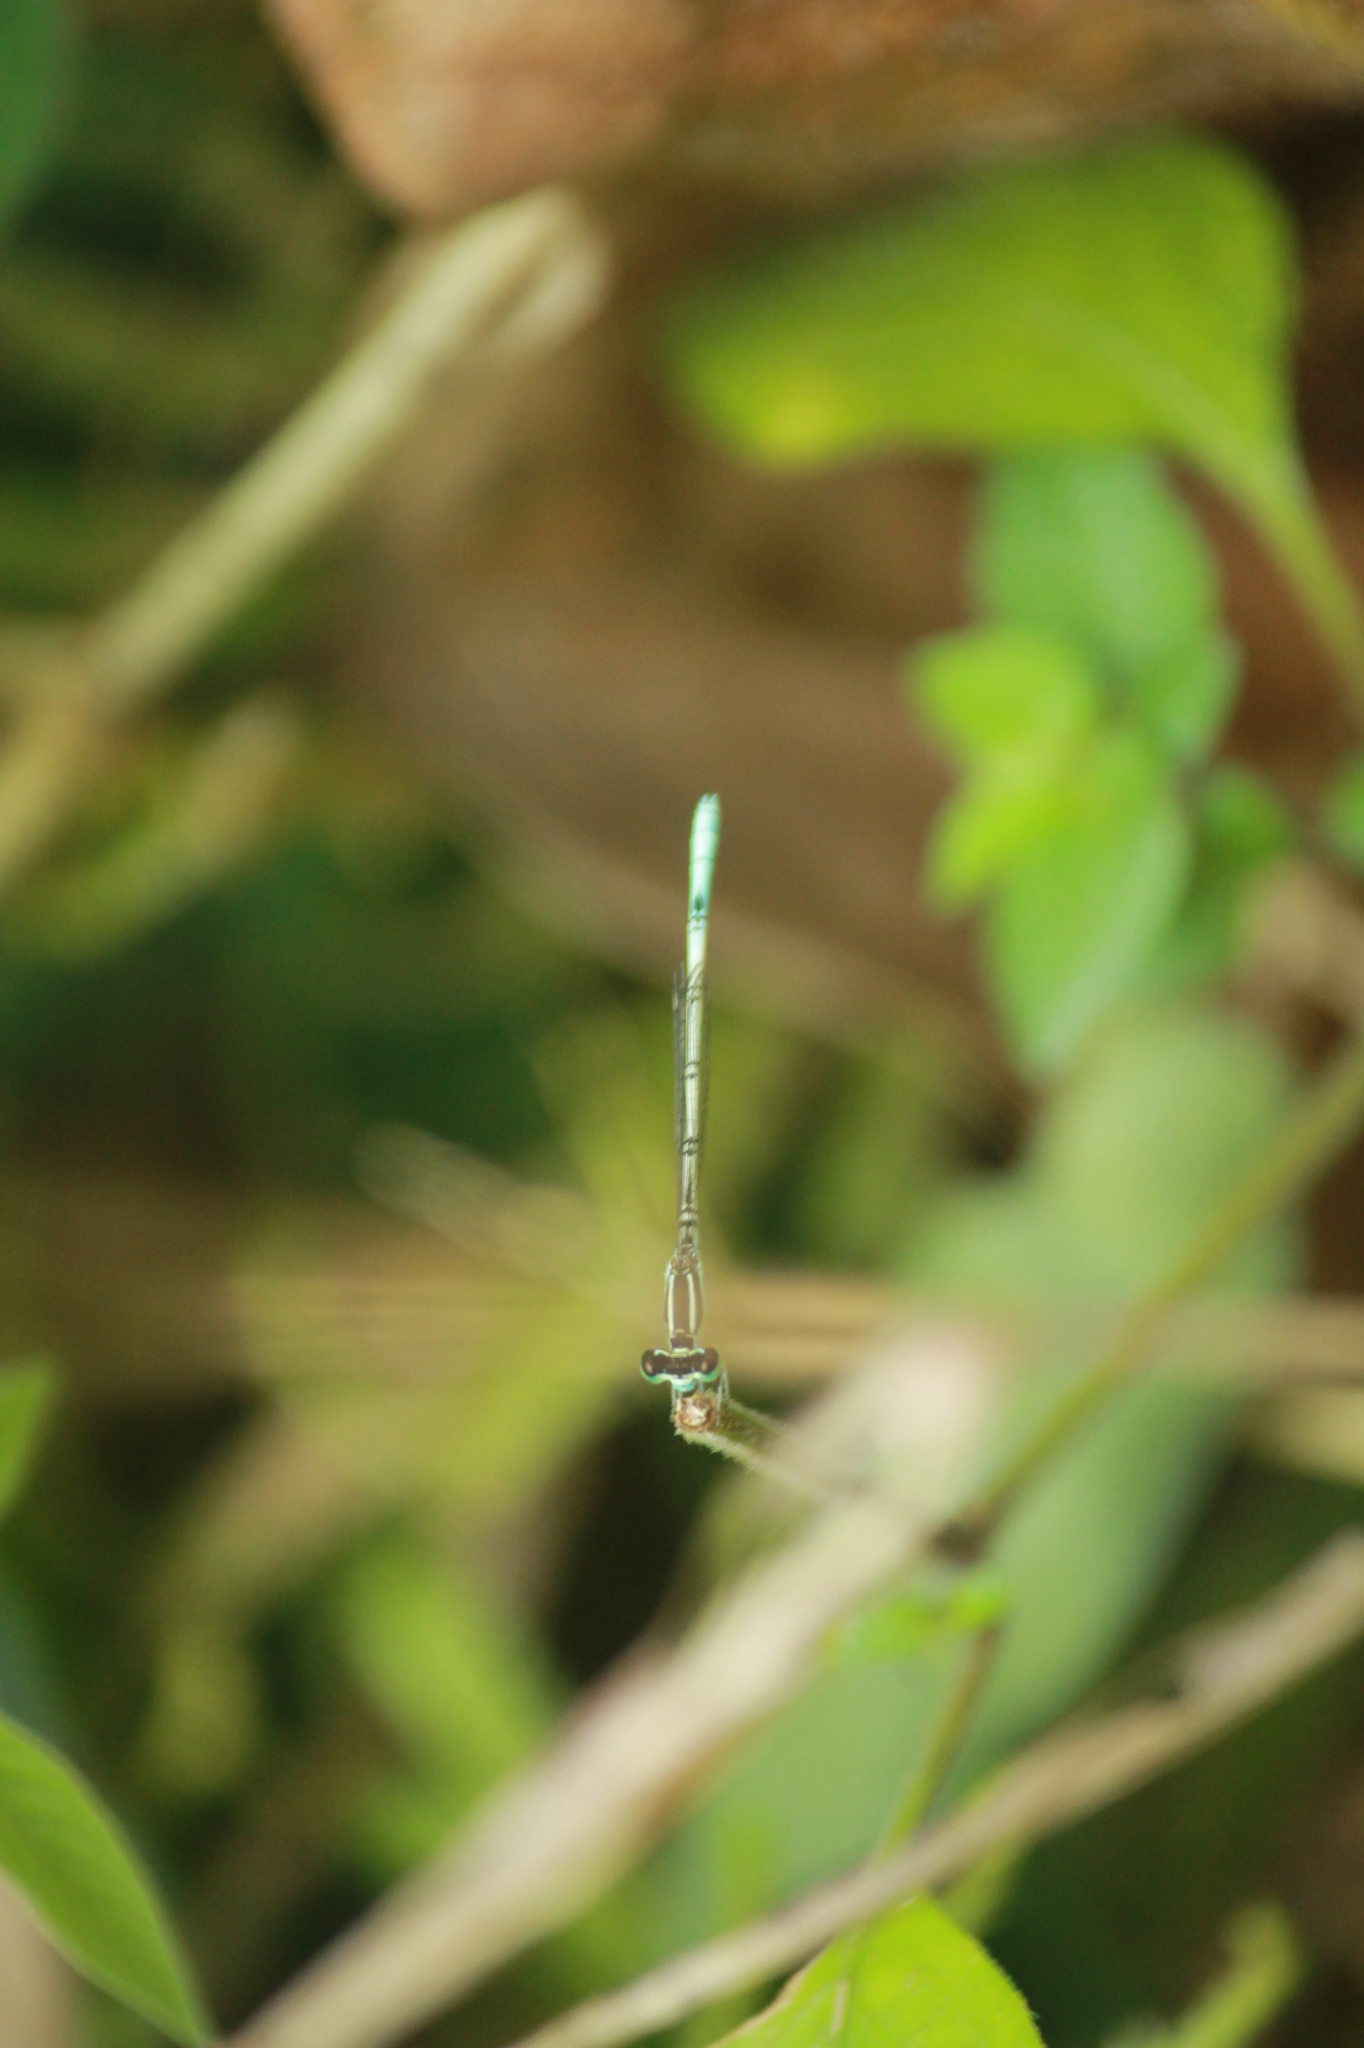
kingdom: Animalia
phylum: Arthropoda
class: Insecta
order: Odonata
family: Coenagrionidae
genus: Agriocnemis
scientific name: Agriocnemis pieris
